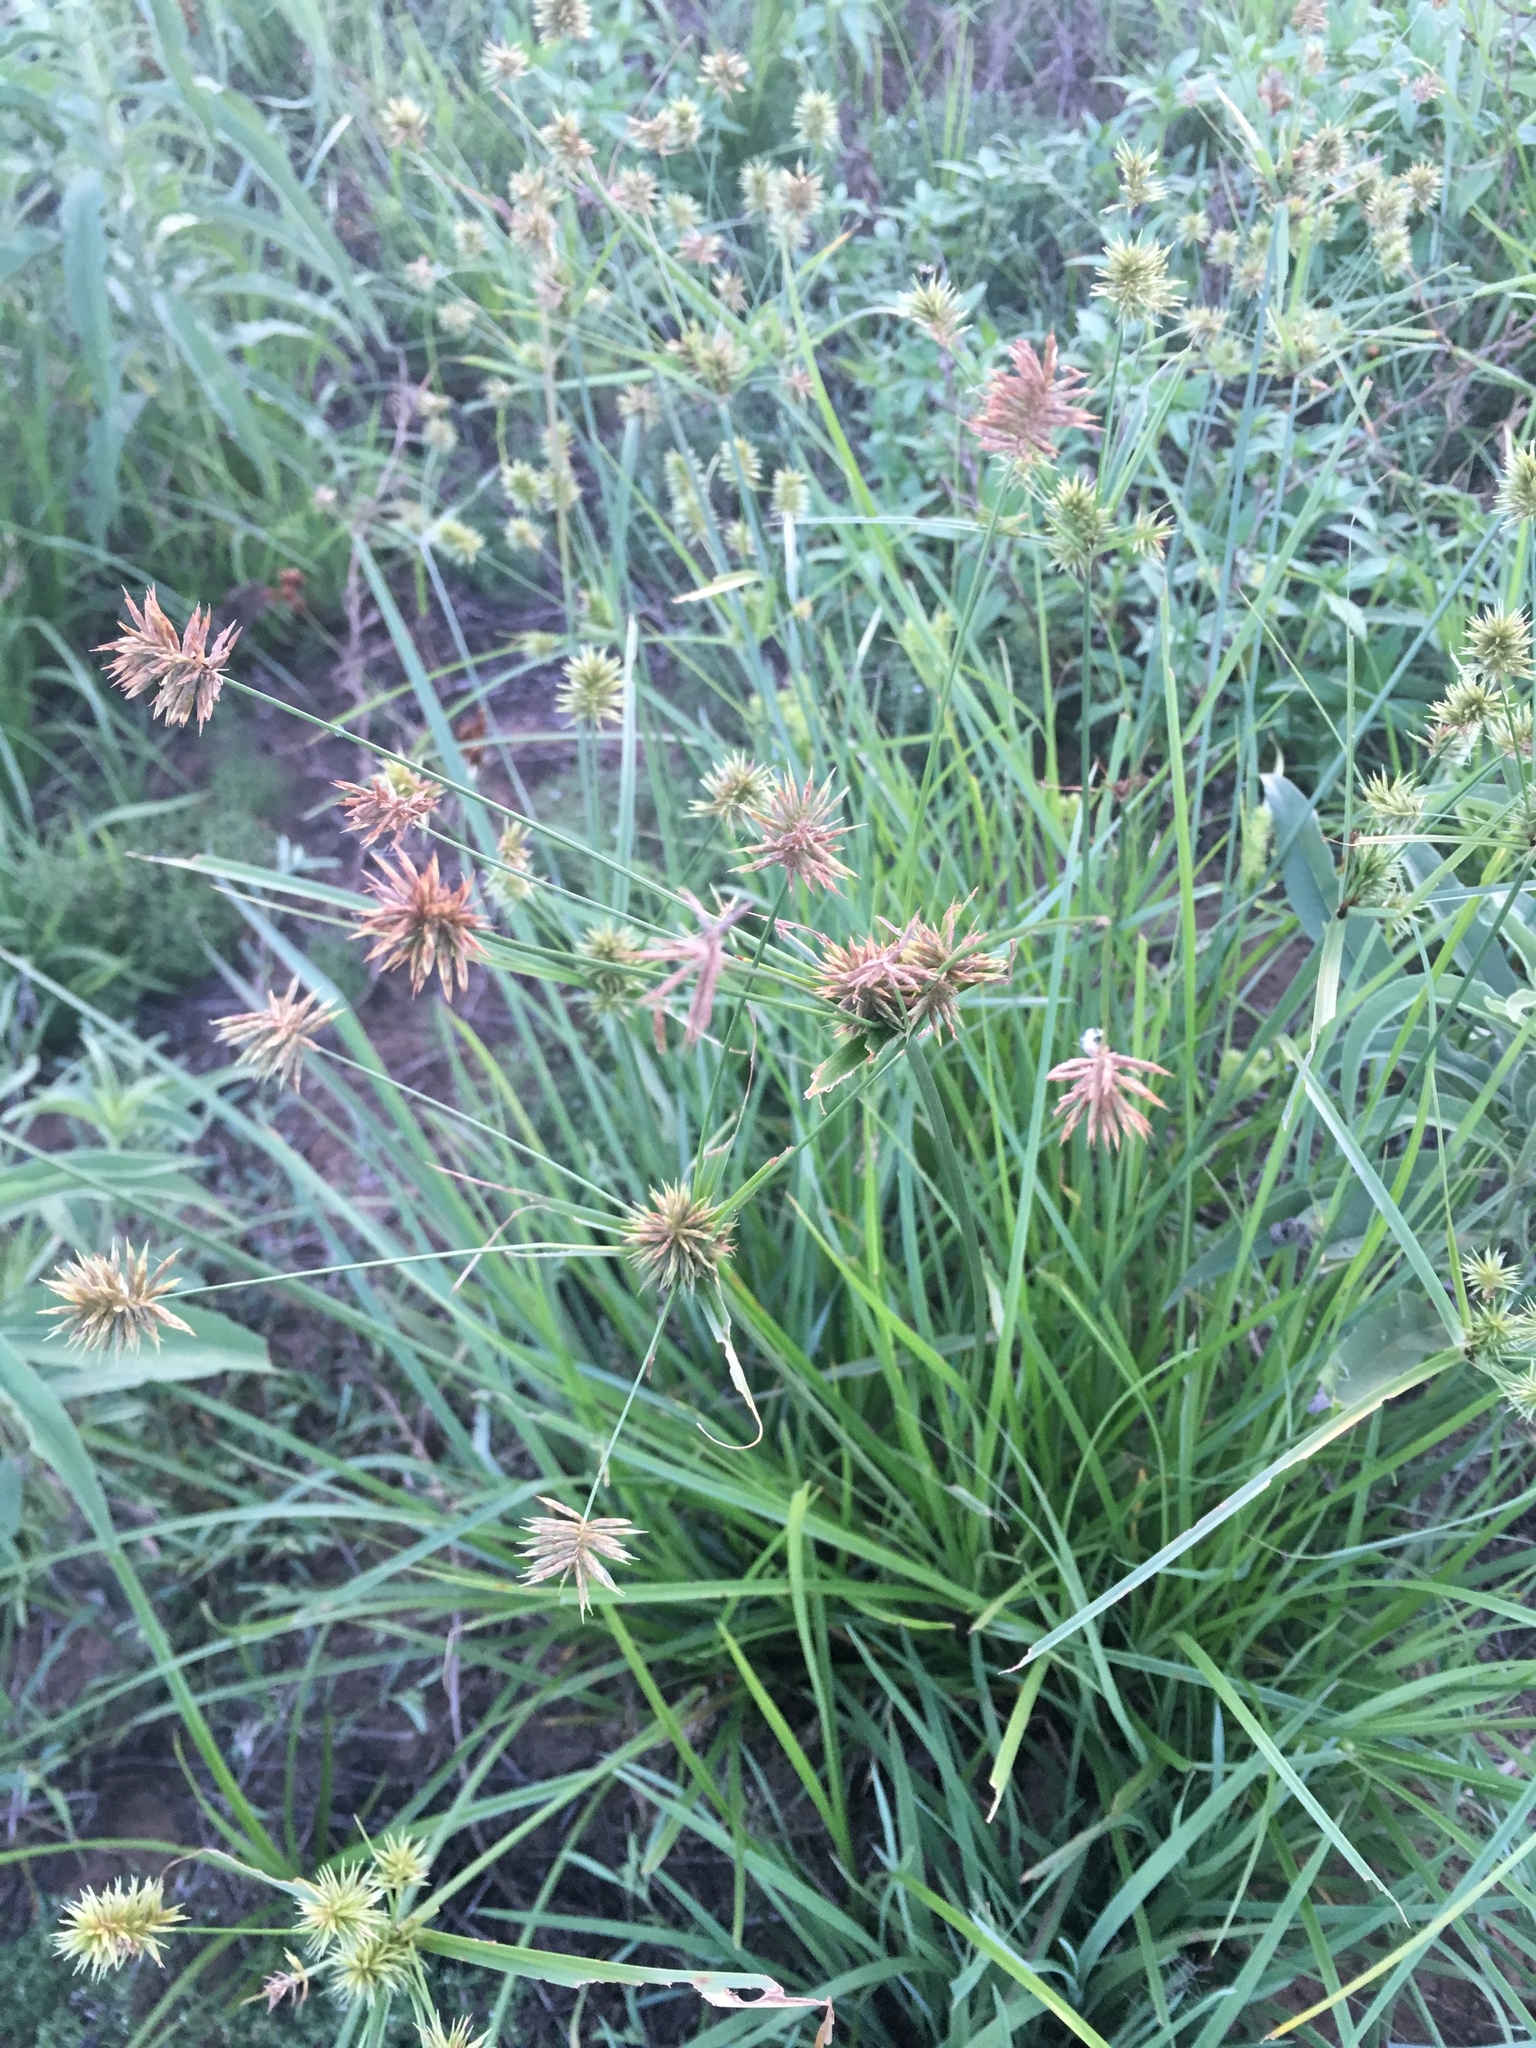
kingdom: Plantae
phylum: Tracheophyta
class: Liliopsida
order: Poales
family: Cyperaceae
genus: Cyperus
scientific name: Cyperus odoratus
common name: Fragrant flatsedge
